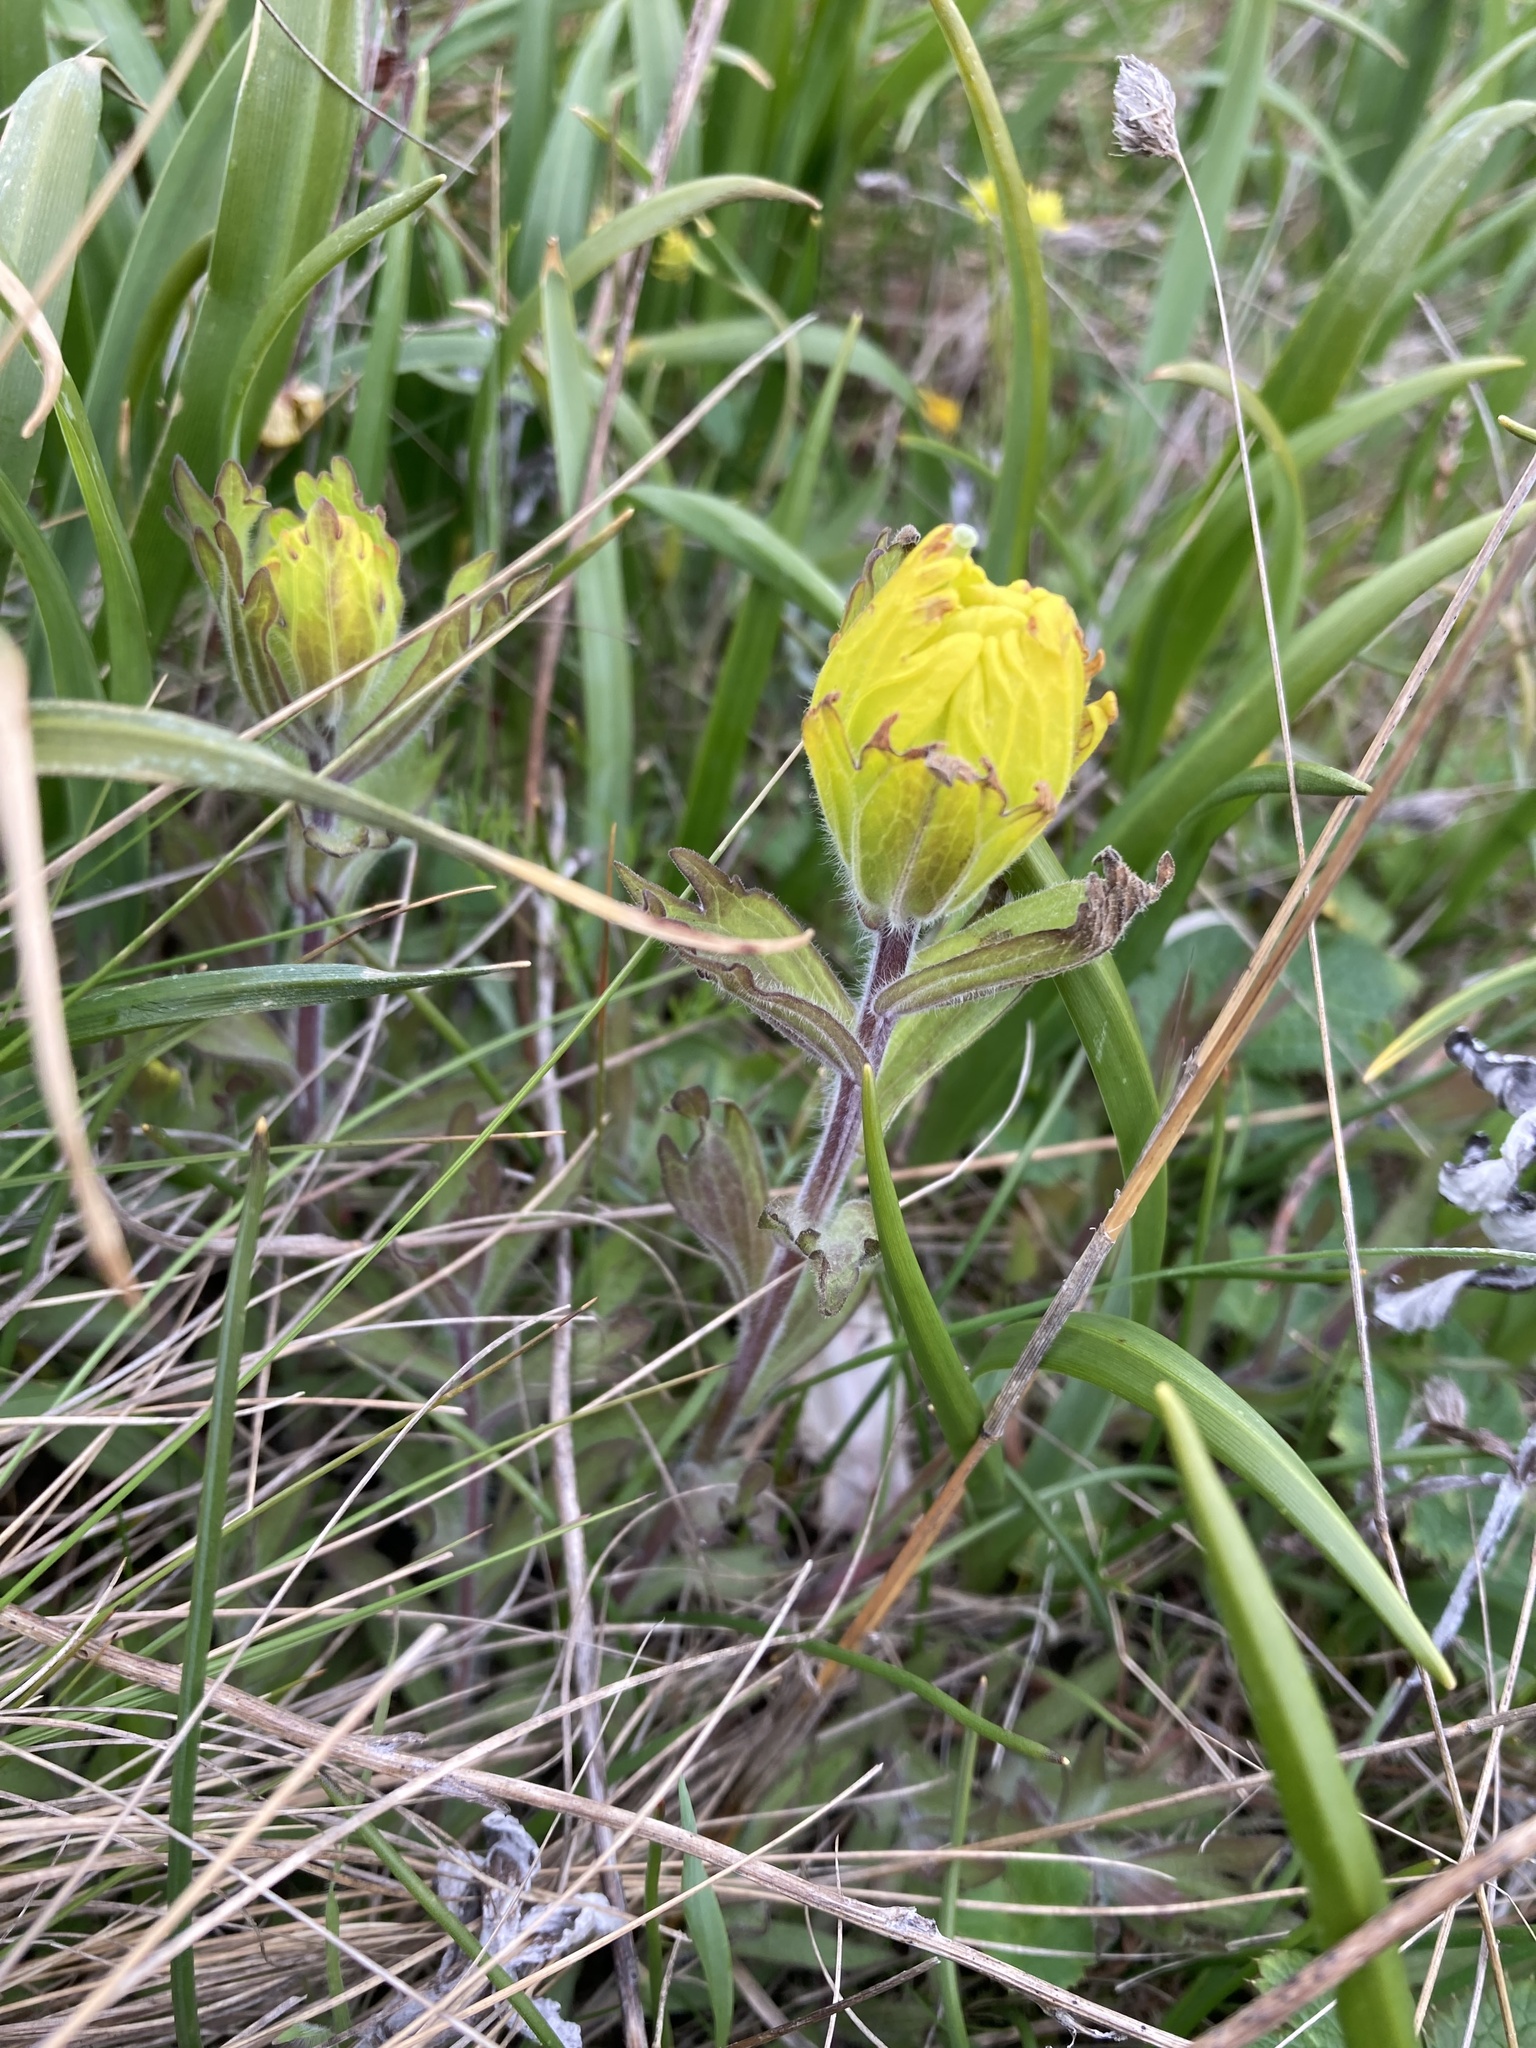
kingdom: Plantae
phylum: Tracheophyta
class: Magnoliopsida
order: Lamiales
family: Orobanchaceae
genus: Castilleja
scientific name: Castilleja levisecta
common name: Golden paintbrush
